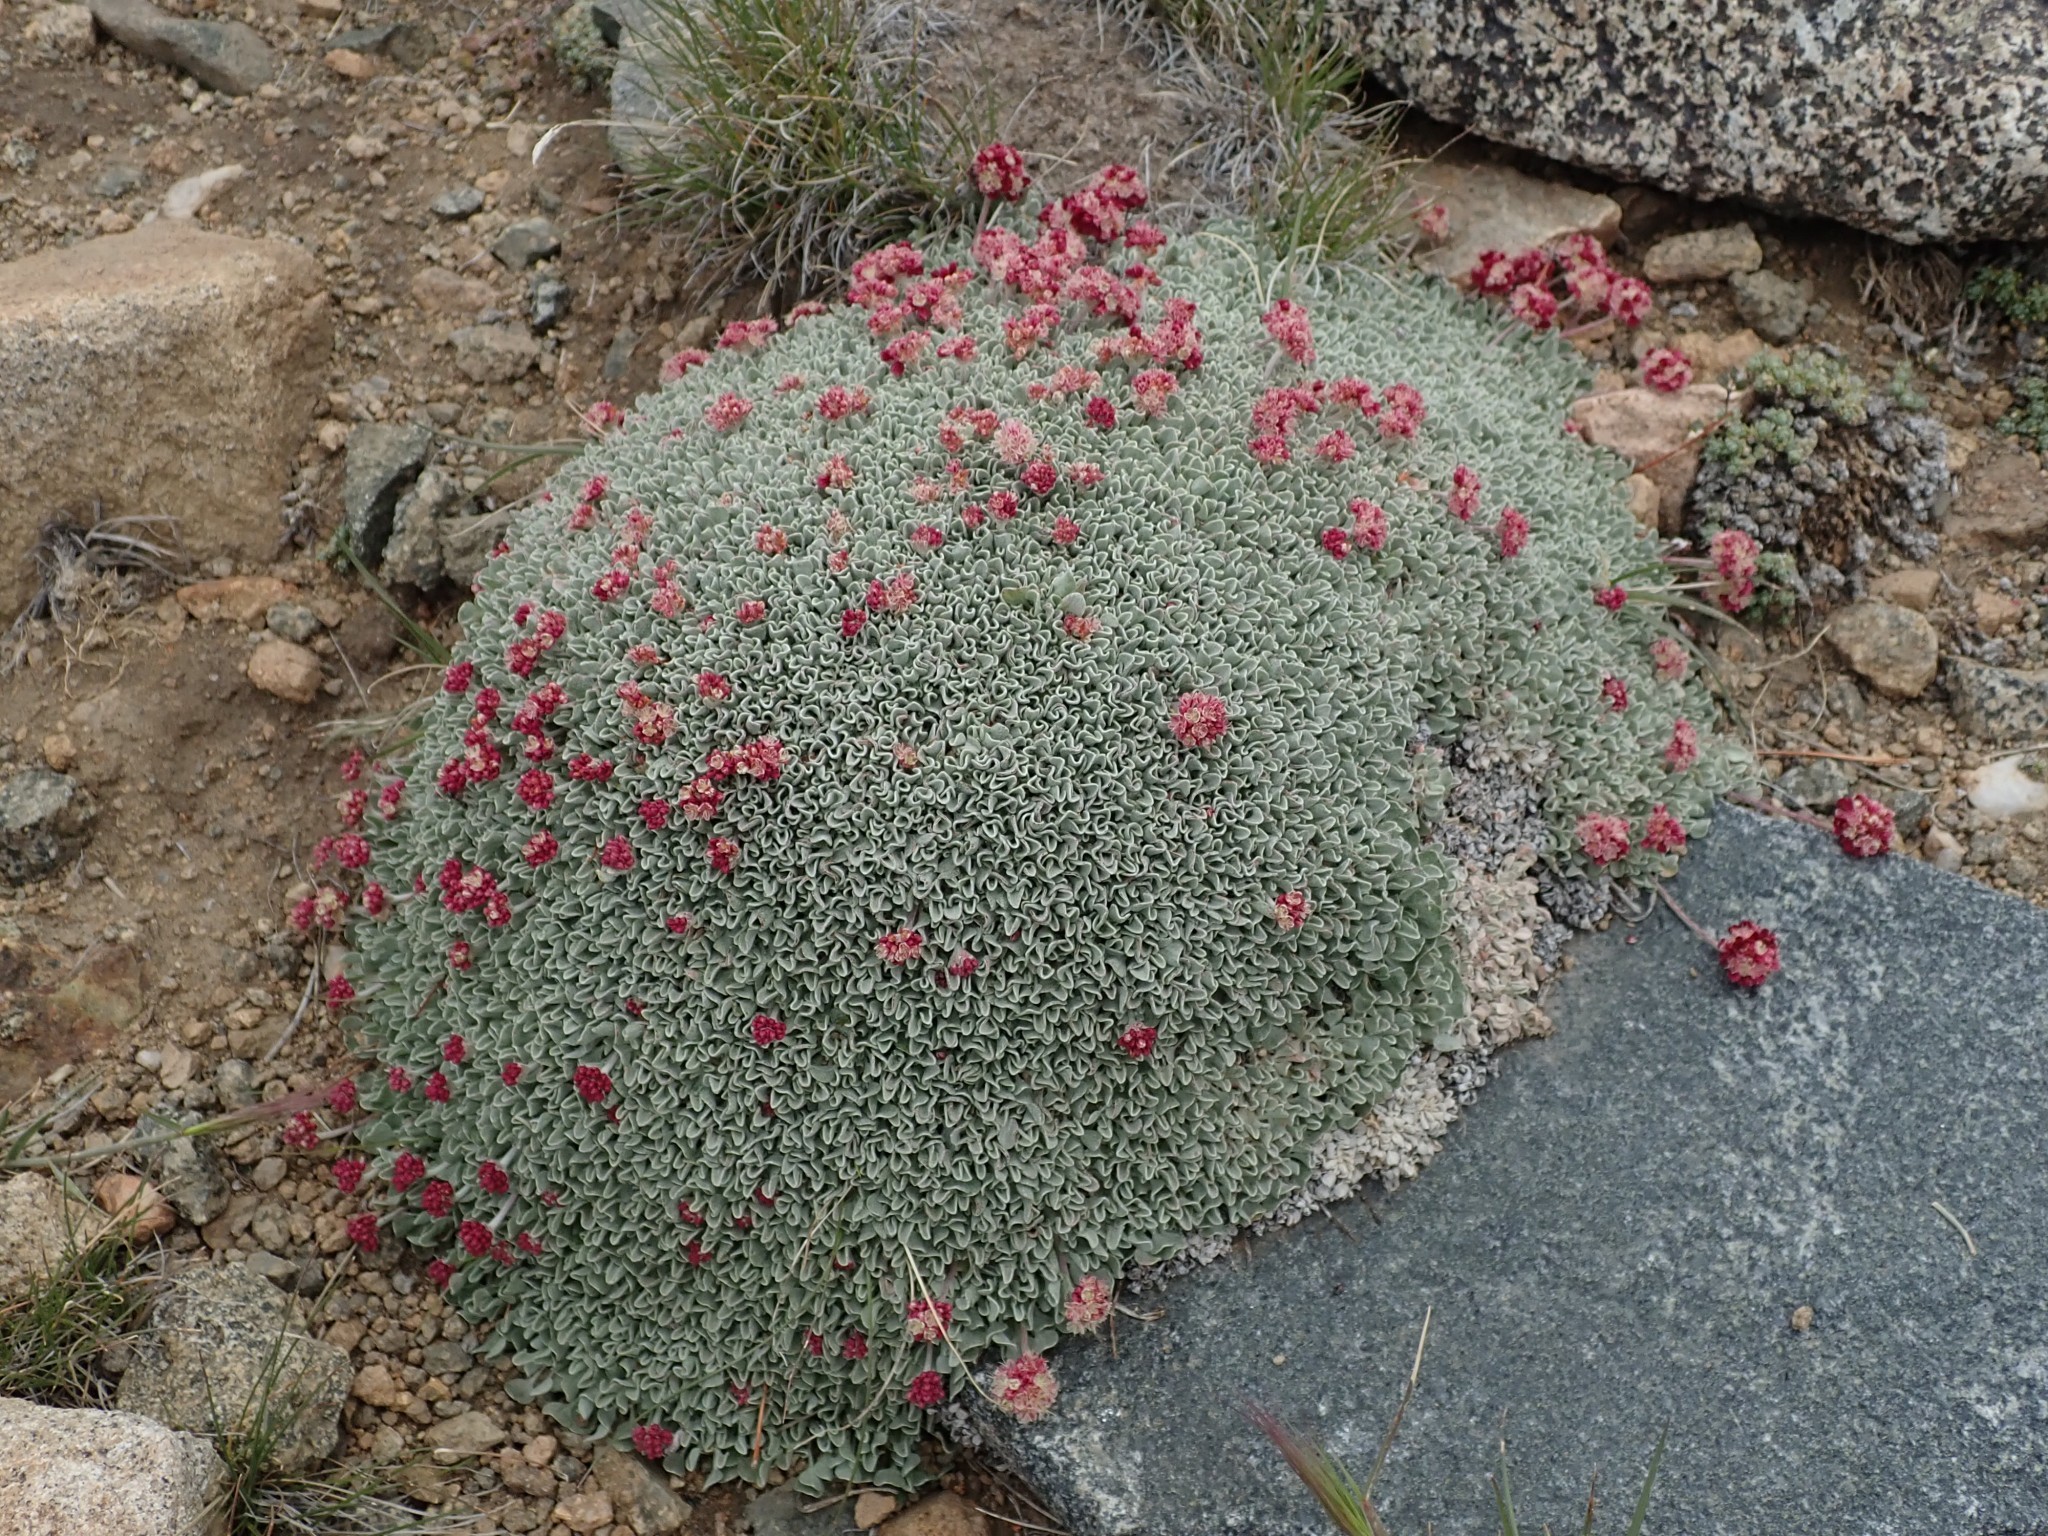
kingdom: Plantae
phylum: Tracheophyta
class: Magnoliopsida
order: Caryophyllales
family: Polygonaceae
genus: Eriogonum
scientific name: Eriogonum ovalifolium
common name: Cushion buckwheat
